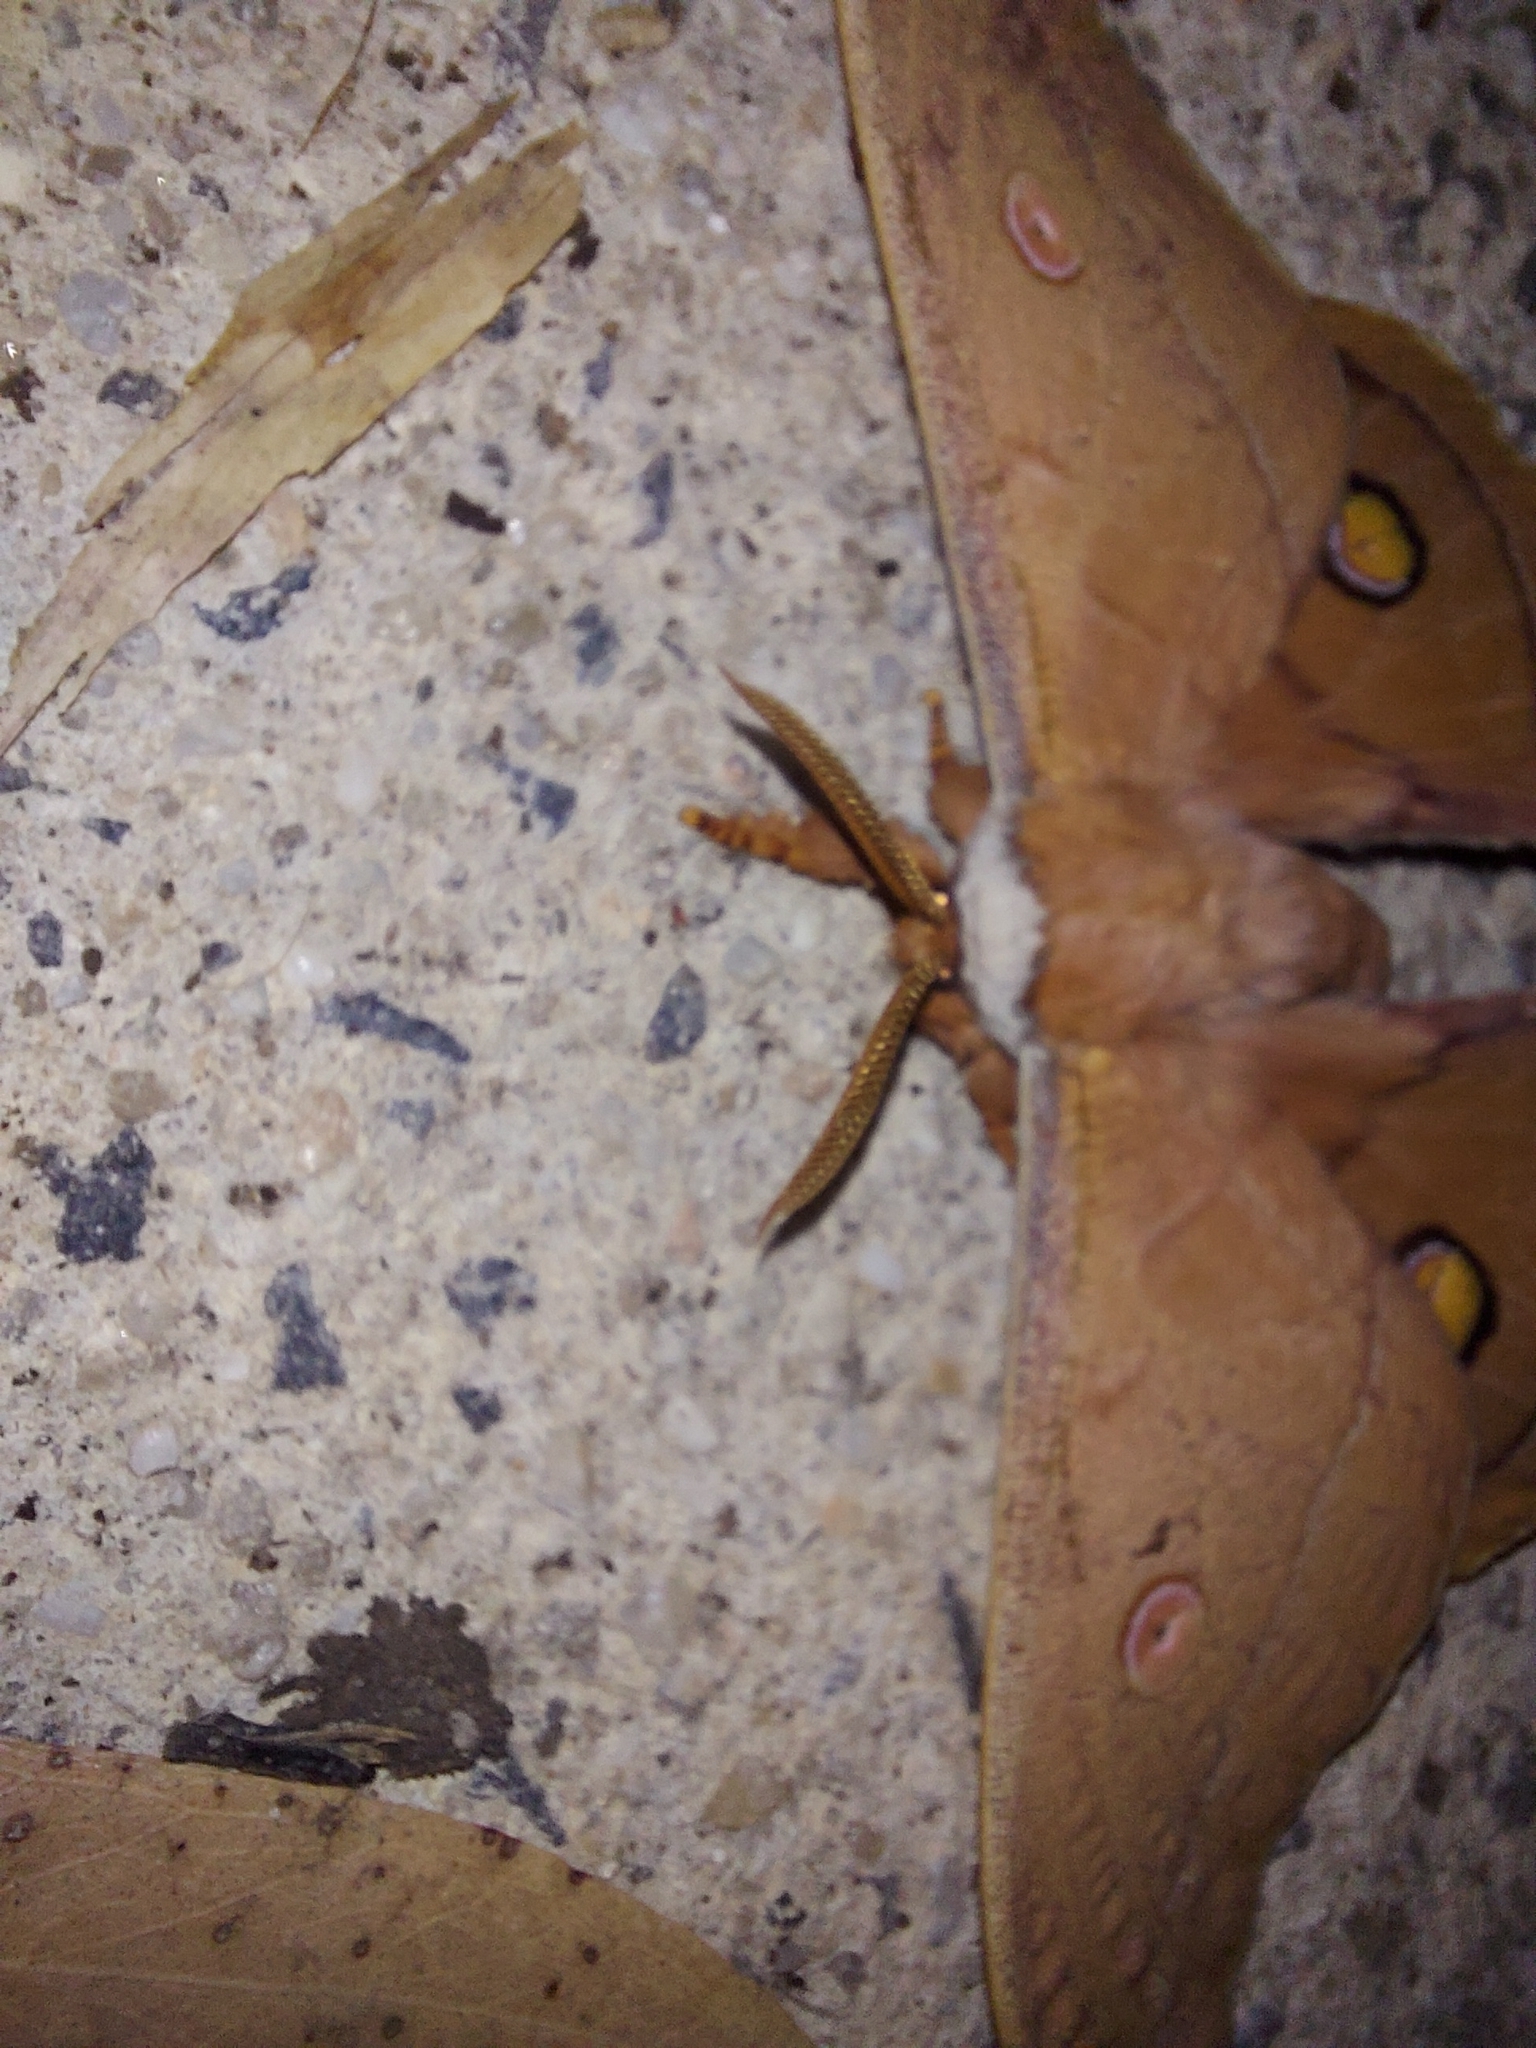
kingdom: Animalia
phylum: Arthropoda
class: Insecta
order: Lepidoptera
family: Saturniidae
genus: Opodiphthera
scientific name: Opodiphthera
